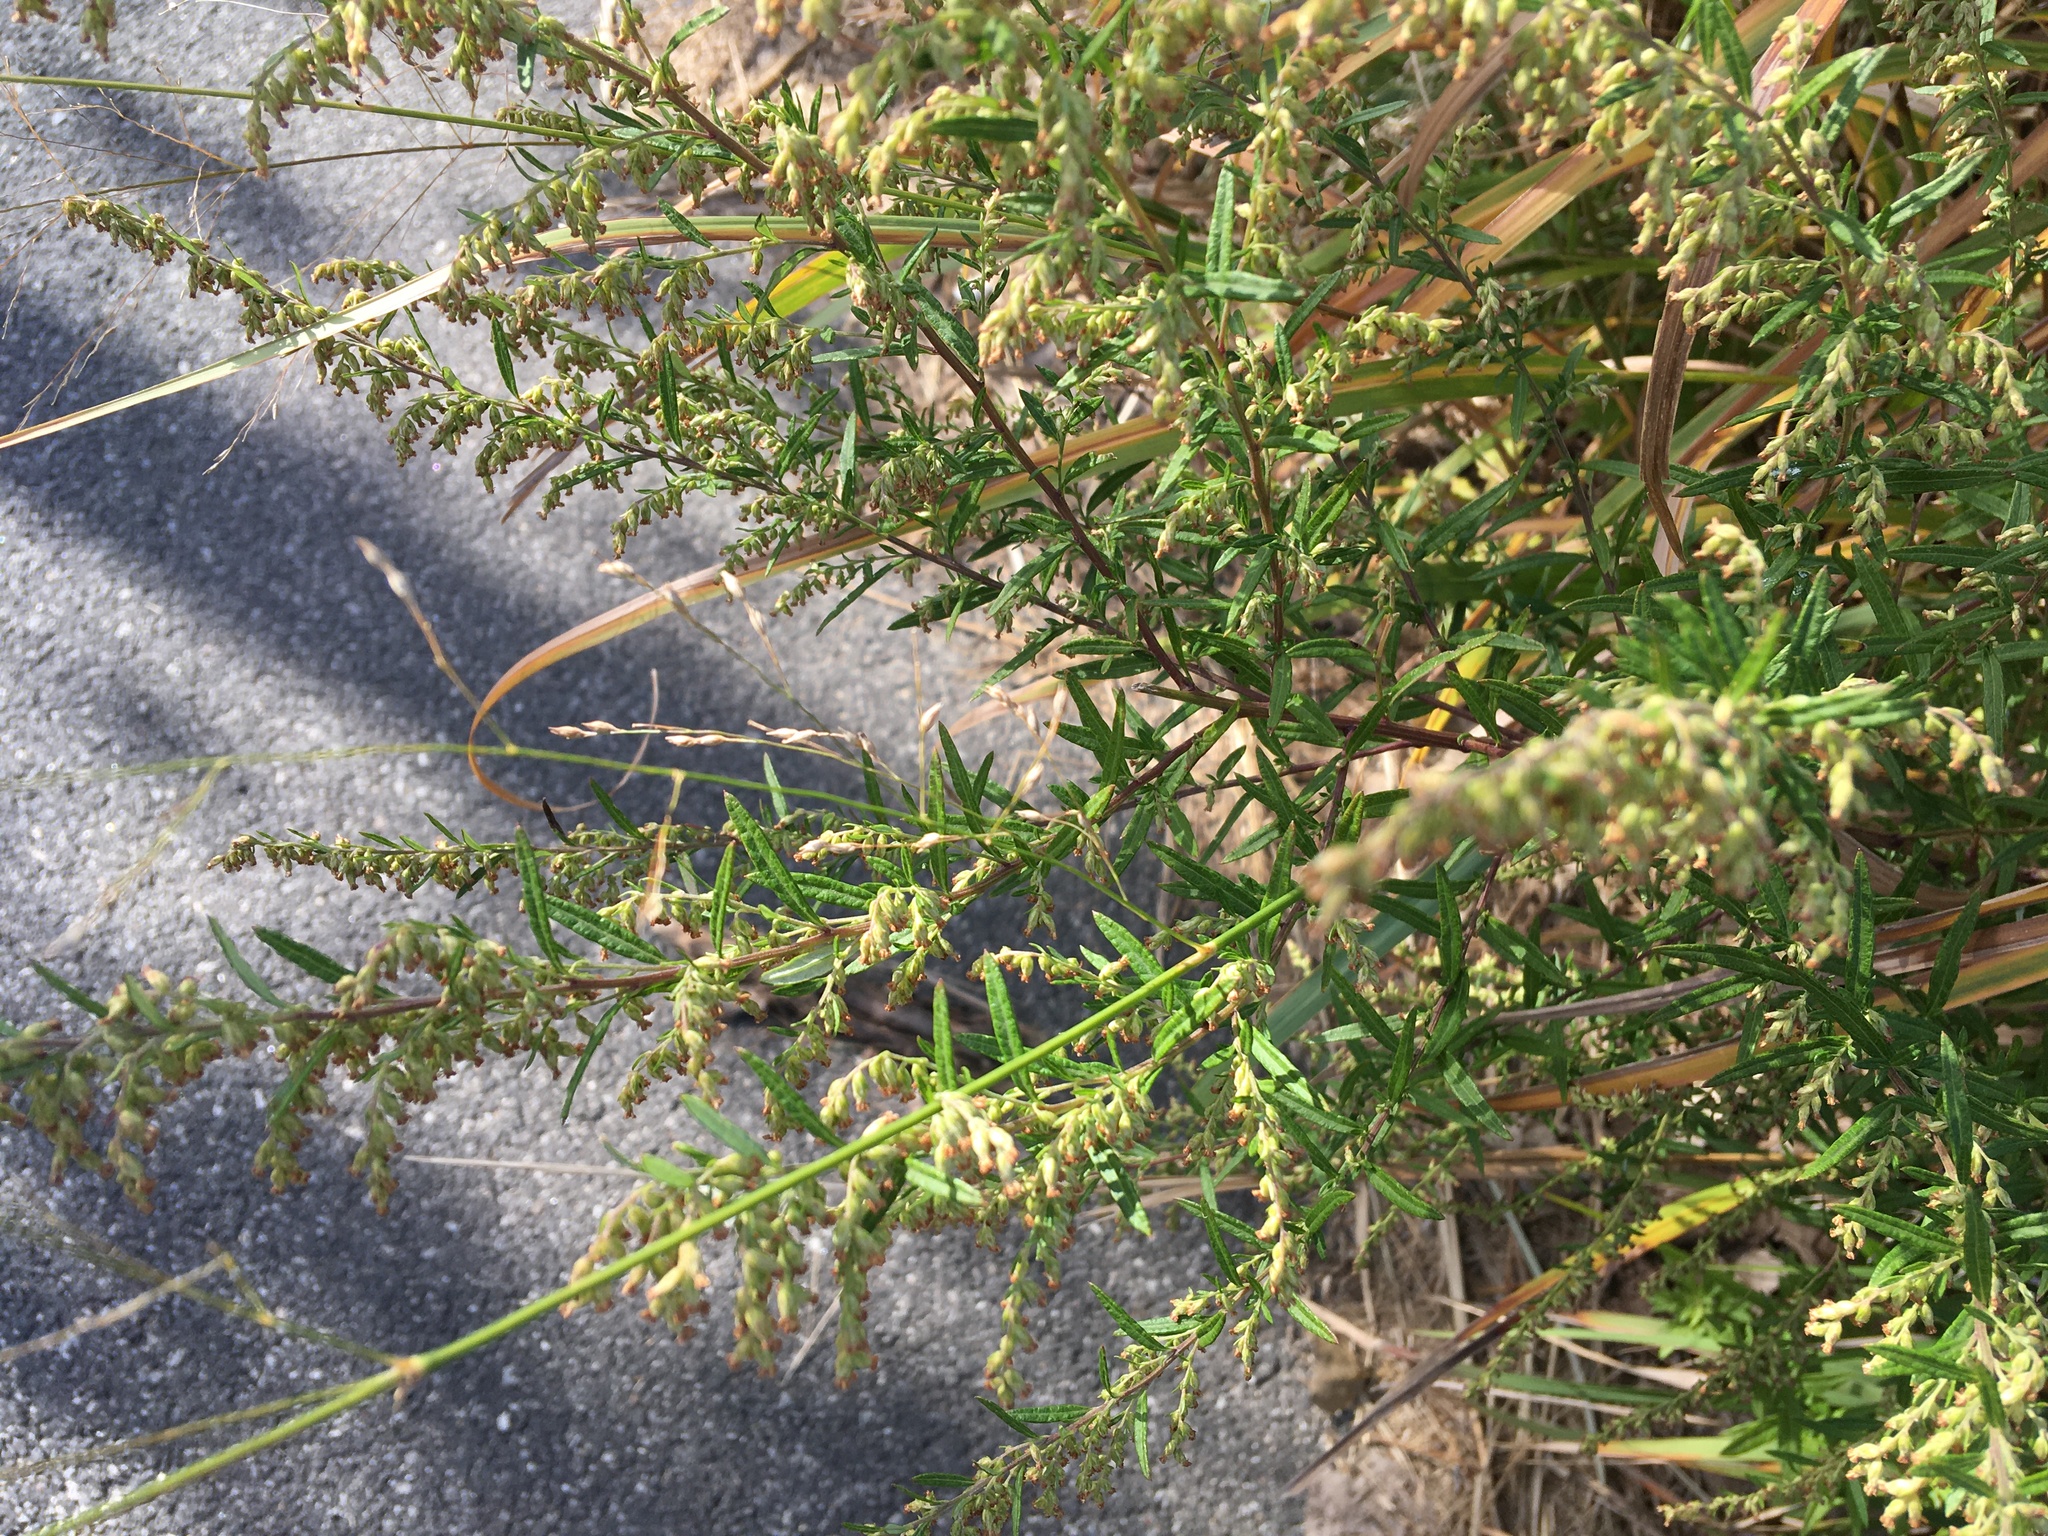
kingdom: Plantae
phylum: Tracheophyta
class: Magnoliopsida
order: Asterales
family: Asteraceae
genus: Artemisia
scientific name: Artemisia vulgaris
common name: Mugwort
